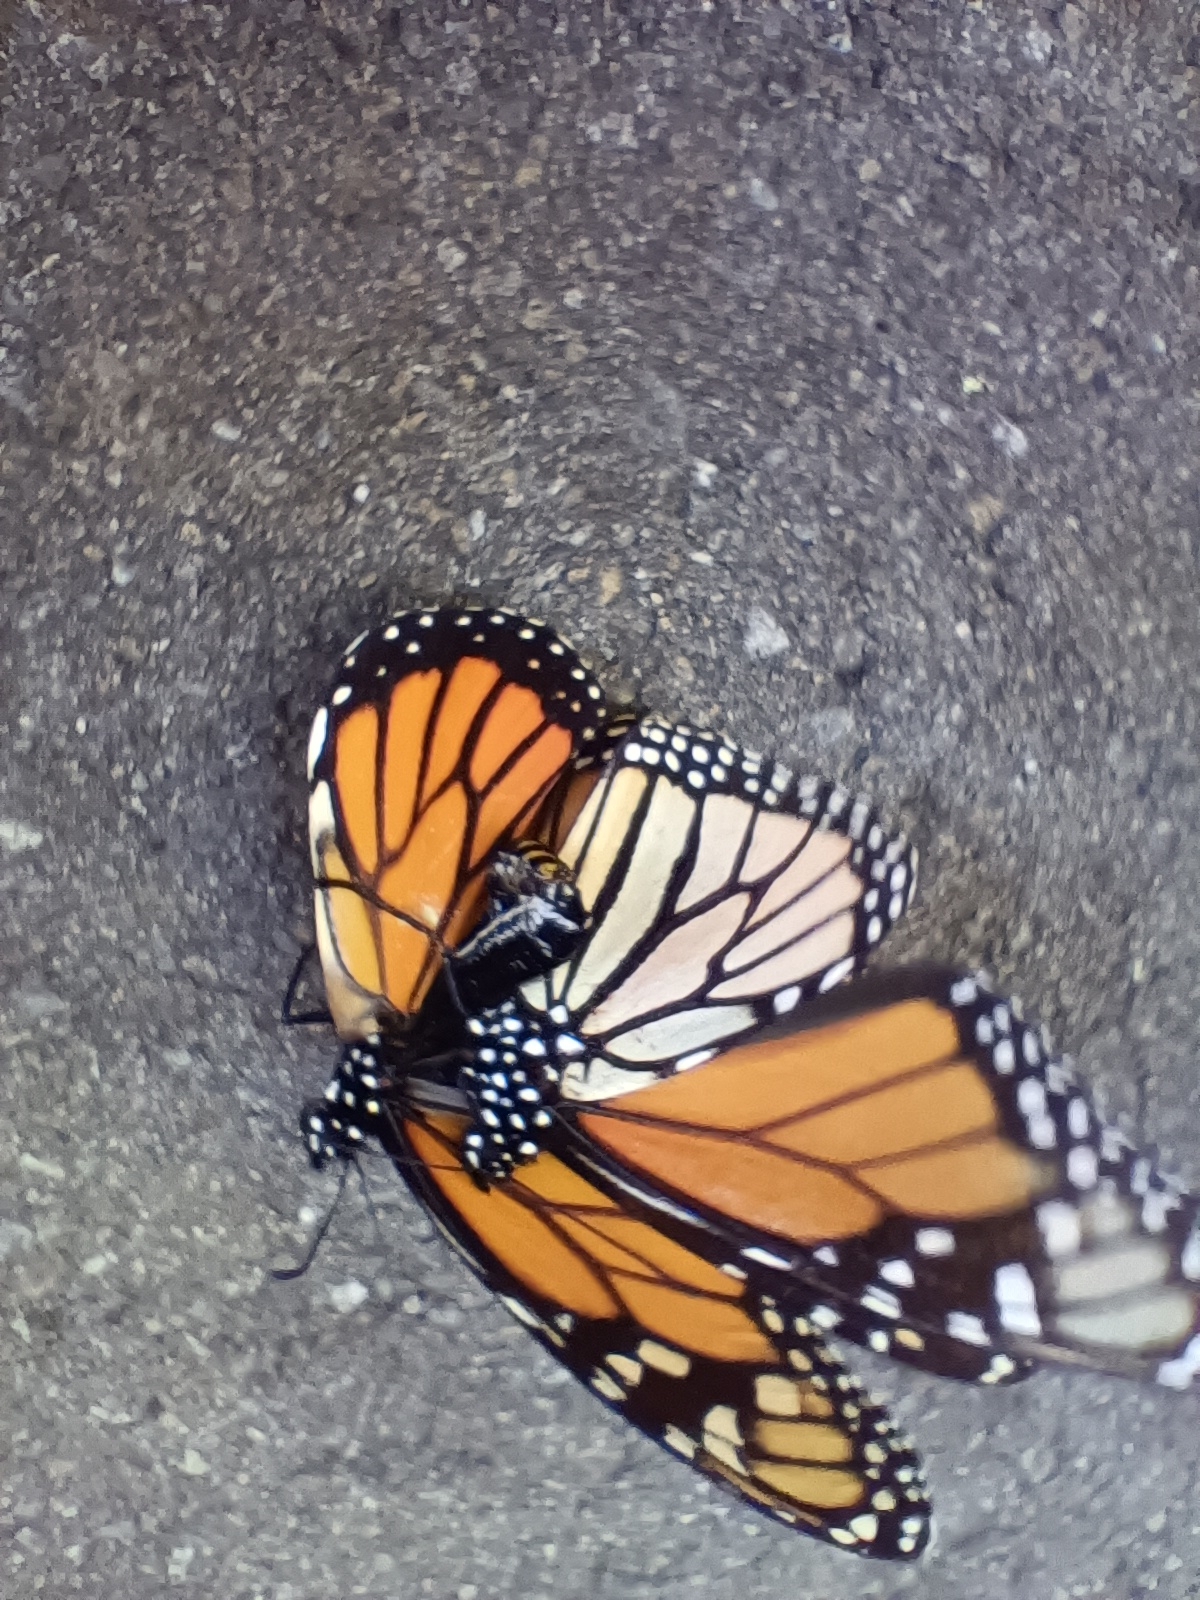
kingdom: Animalia
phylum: Arthropoda
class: Insecta
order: Lepidoptera
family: Nymphalidae
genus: Danaus
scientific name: Danaus plexippus
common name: Monarch
